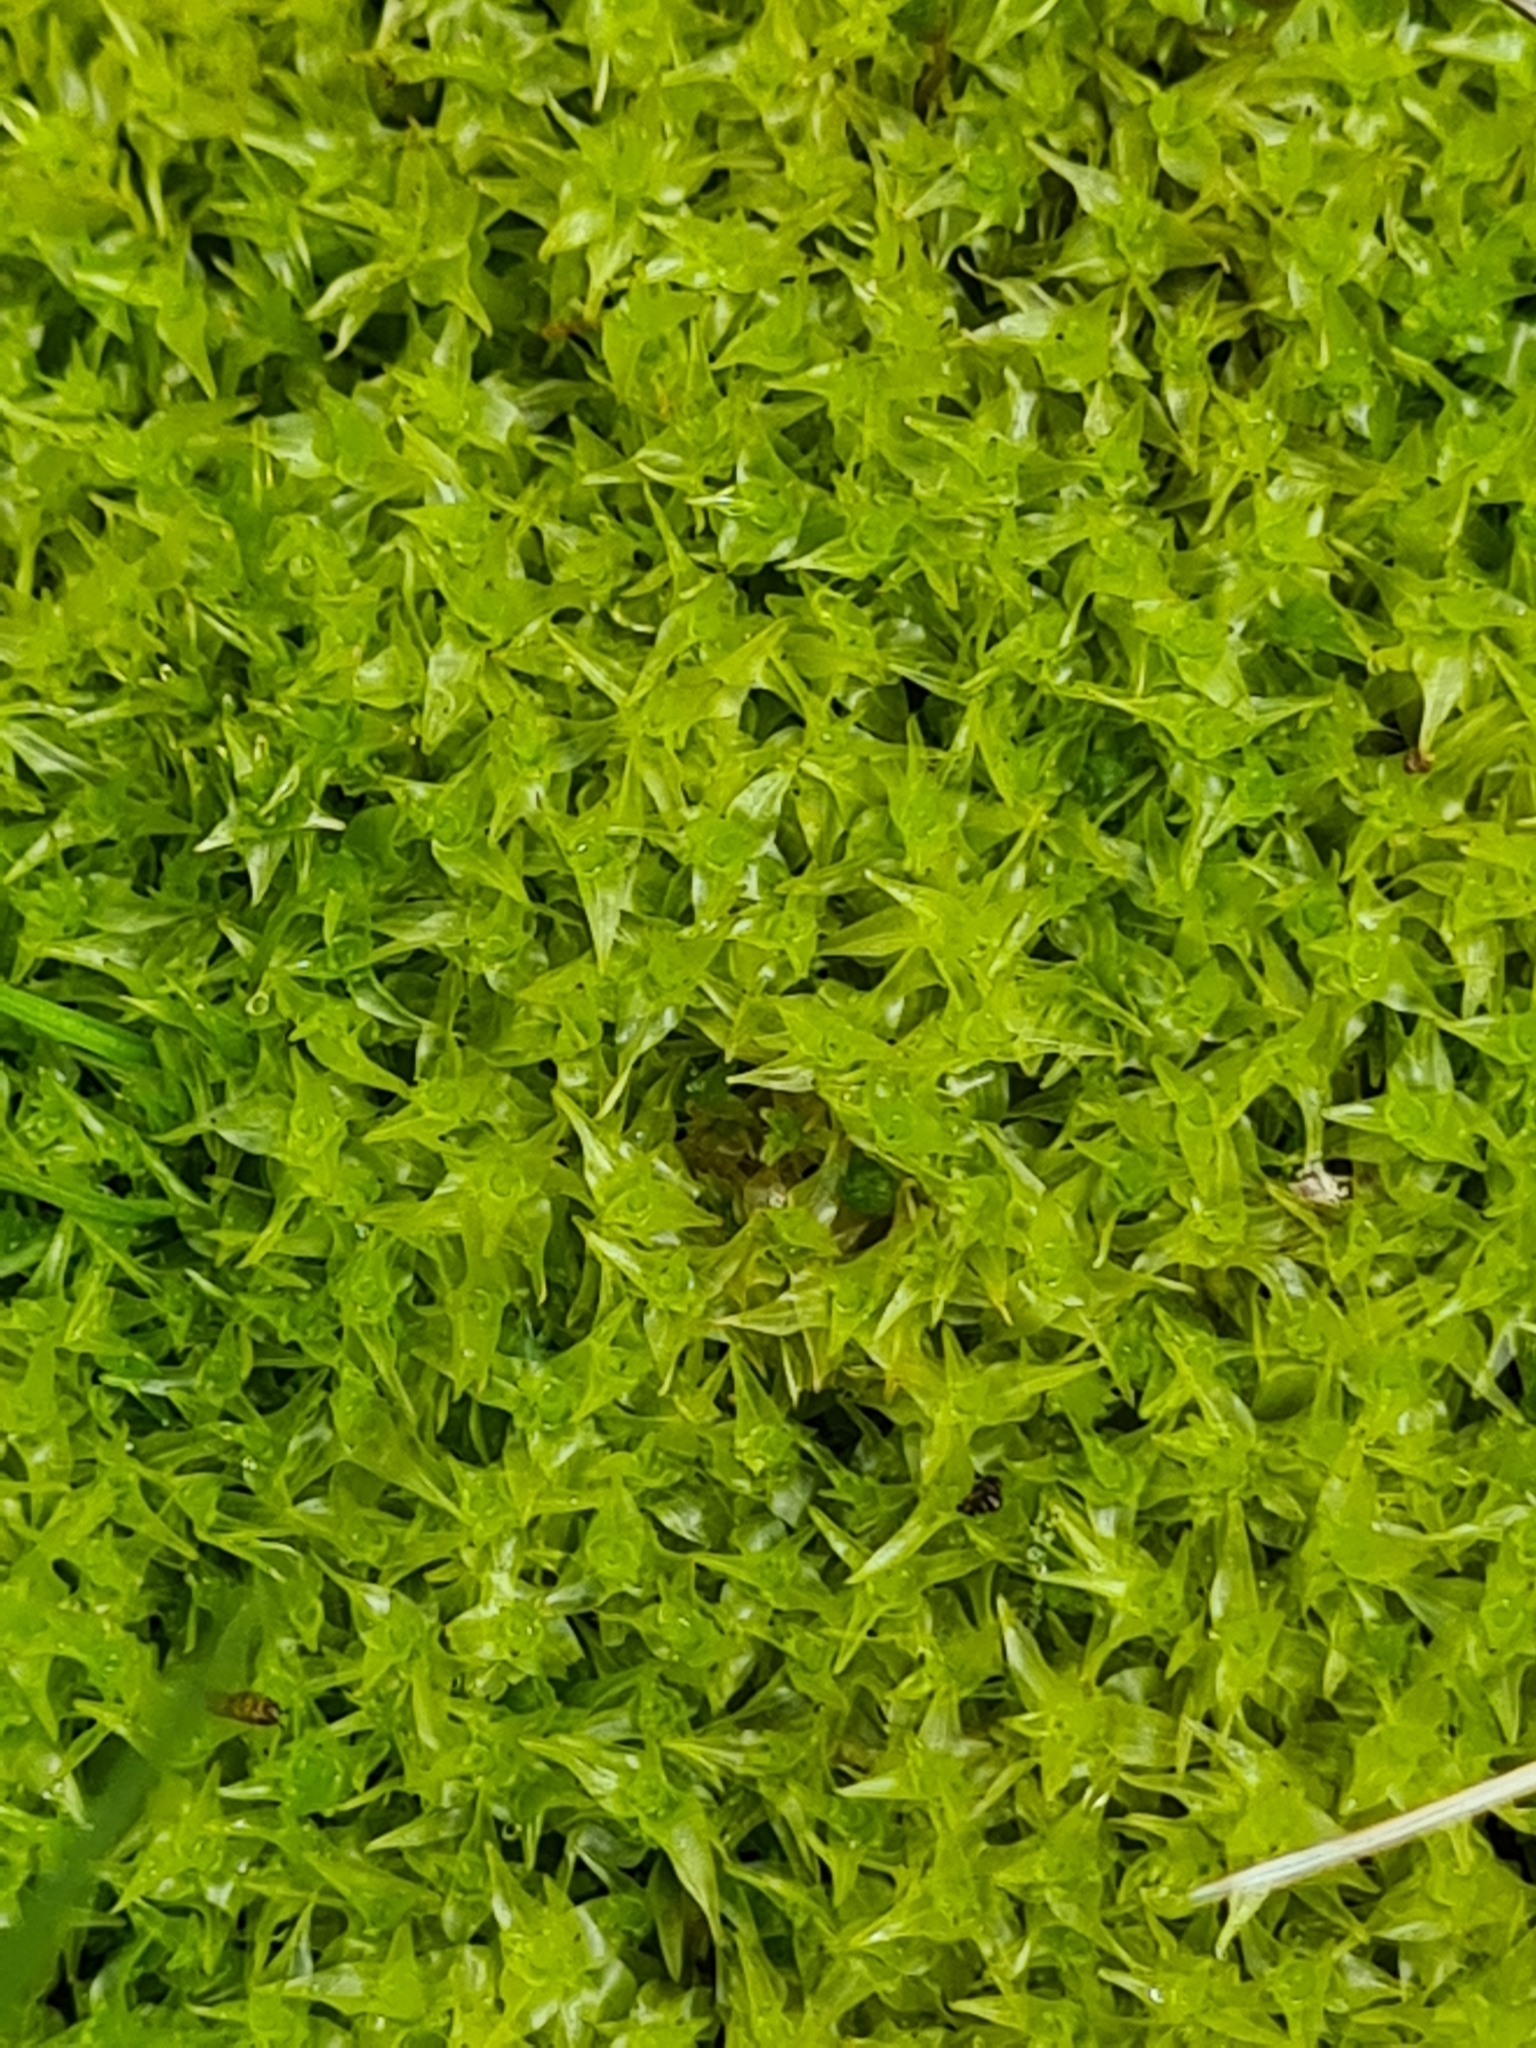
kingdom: Plantae
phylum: Bryophyta
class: Bryopsida
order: Dicranales
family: Aongstroemiaceae
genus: Diobelonella
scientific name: Diobelonella palustris
